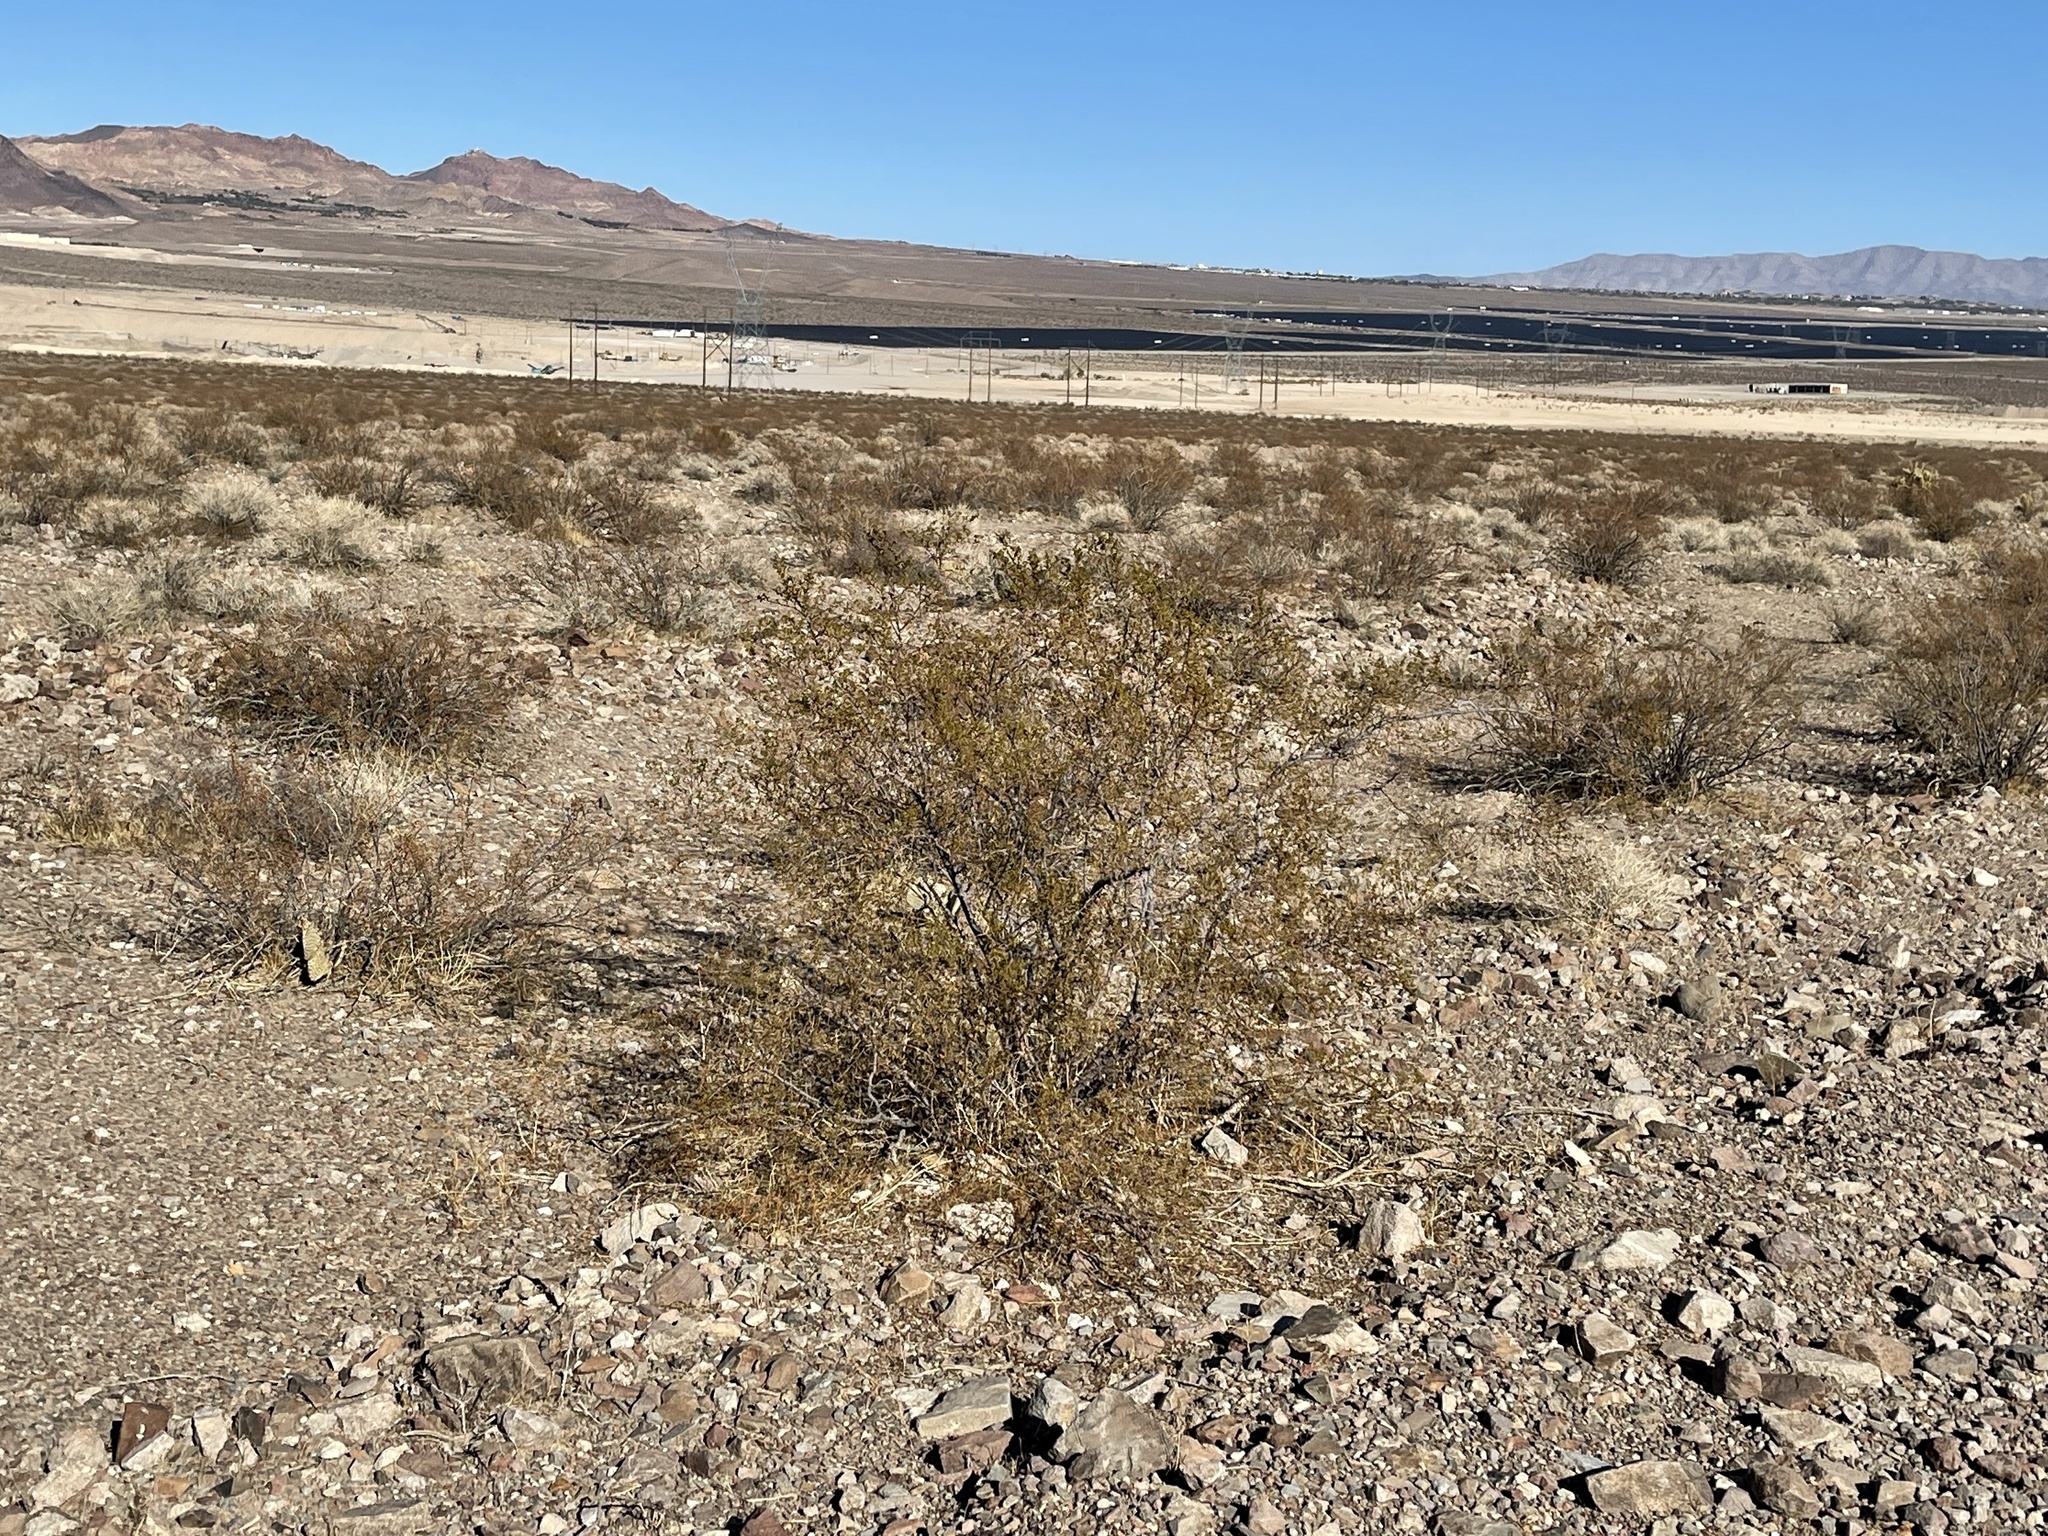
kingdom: Plantae
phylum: Tracheophyta
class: Magnoliopsida
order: Zygophyllales
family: Zygophyllaceae
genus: Larrea
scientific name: Larrea tridentata
